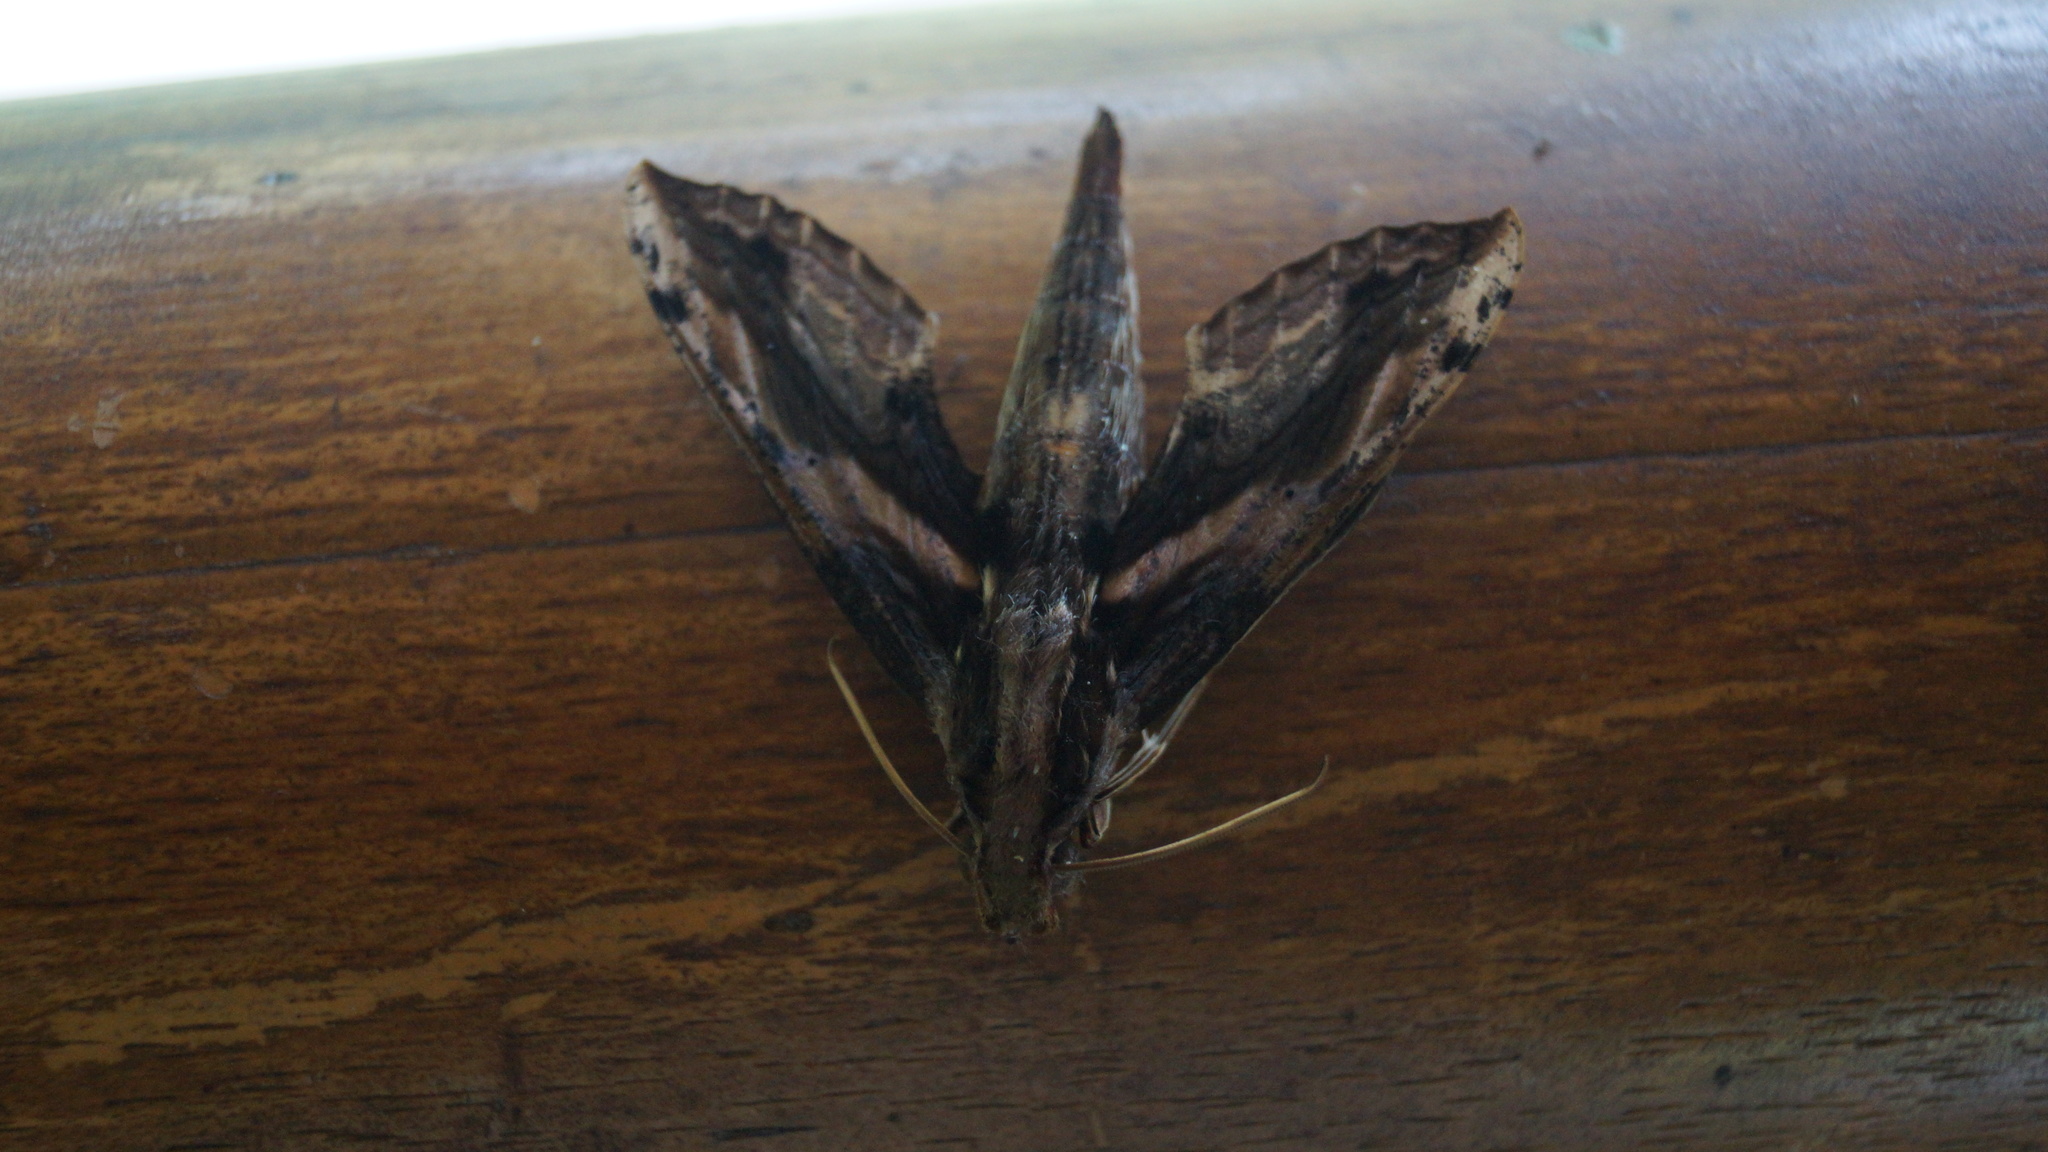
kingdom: Animalia
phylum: Arthropoda
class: Insecta
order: Lepidoptera
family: Sphingidae
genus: Xylophanes
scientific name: Xylophanes ceratomioides
